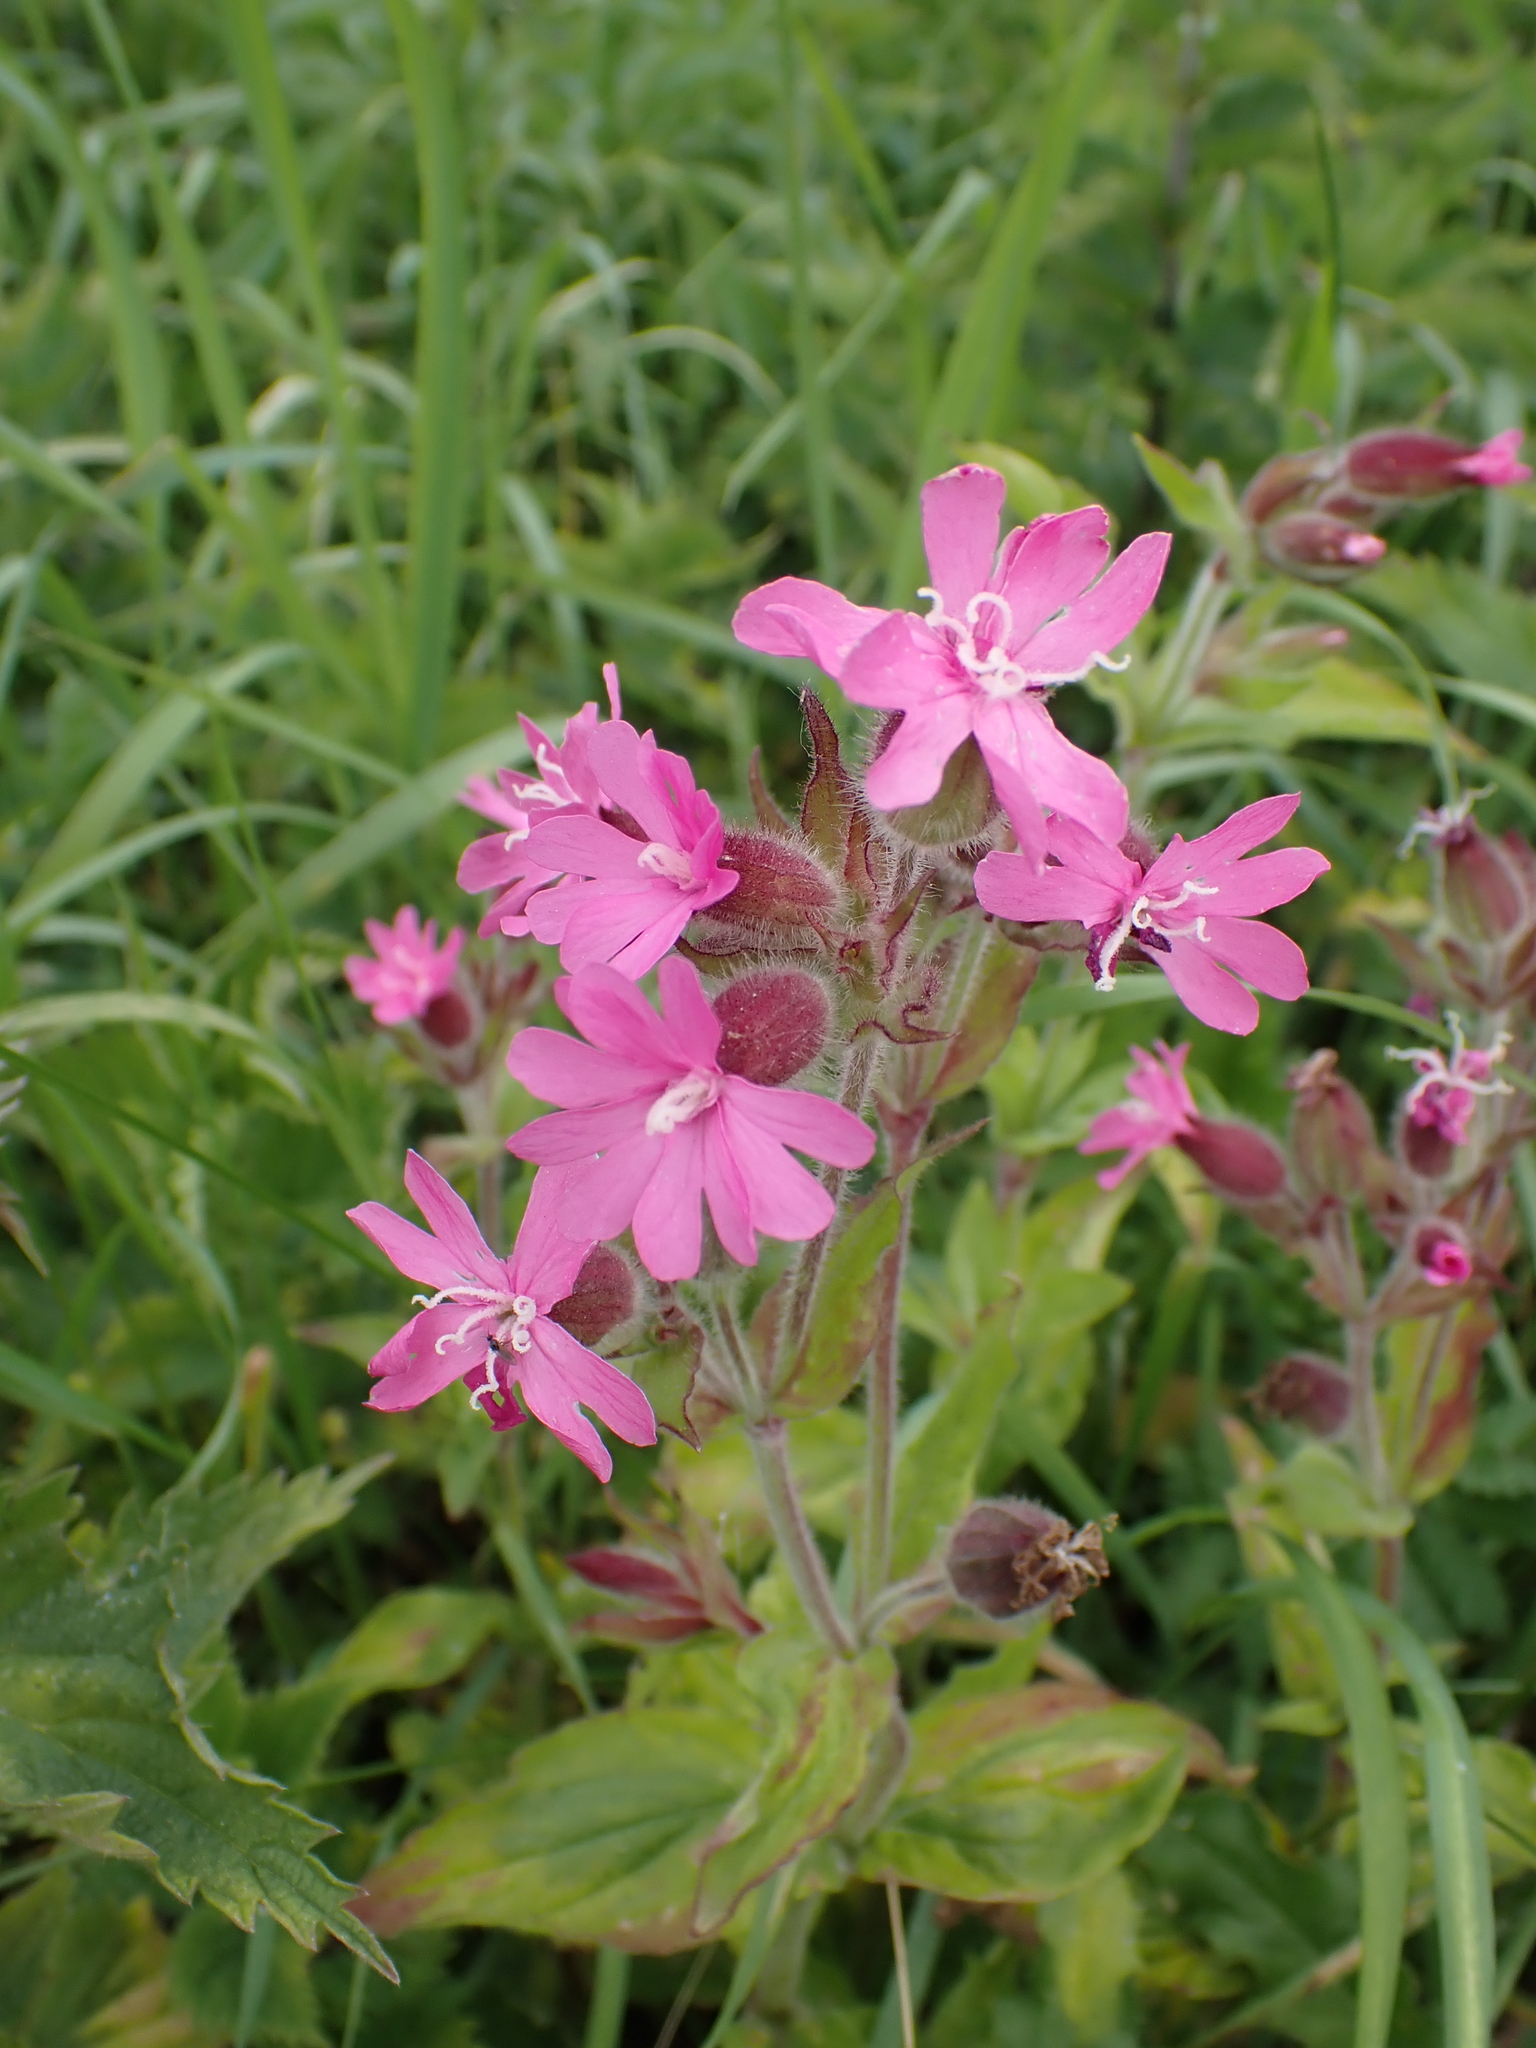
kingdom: Plantae
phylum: Tracheophyta
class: Magnoliopsida
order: Caryophyllales
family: Caryophyllaceae
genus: Silene
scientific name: Silene dioica
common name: Red campion
